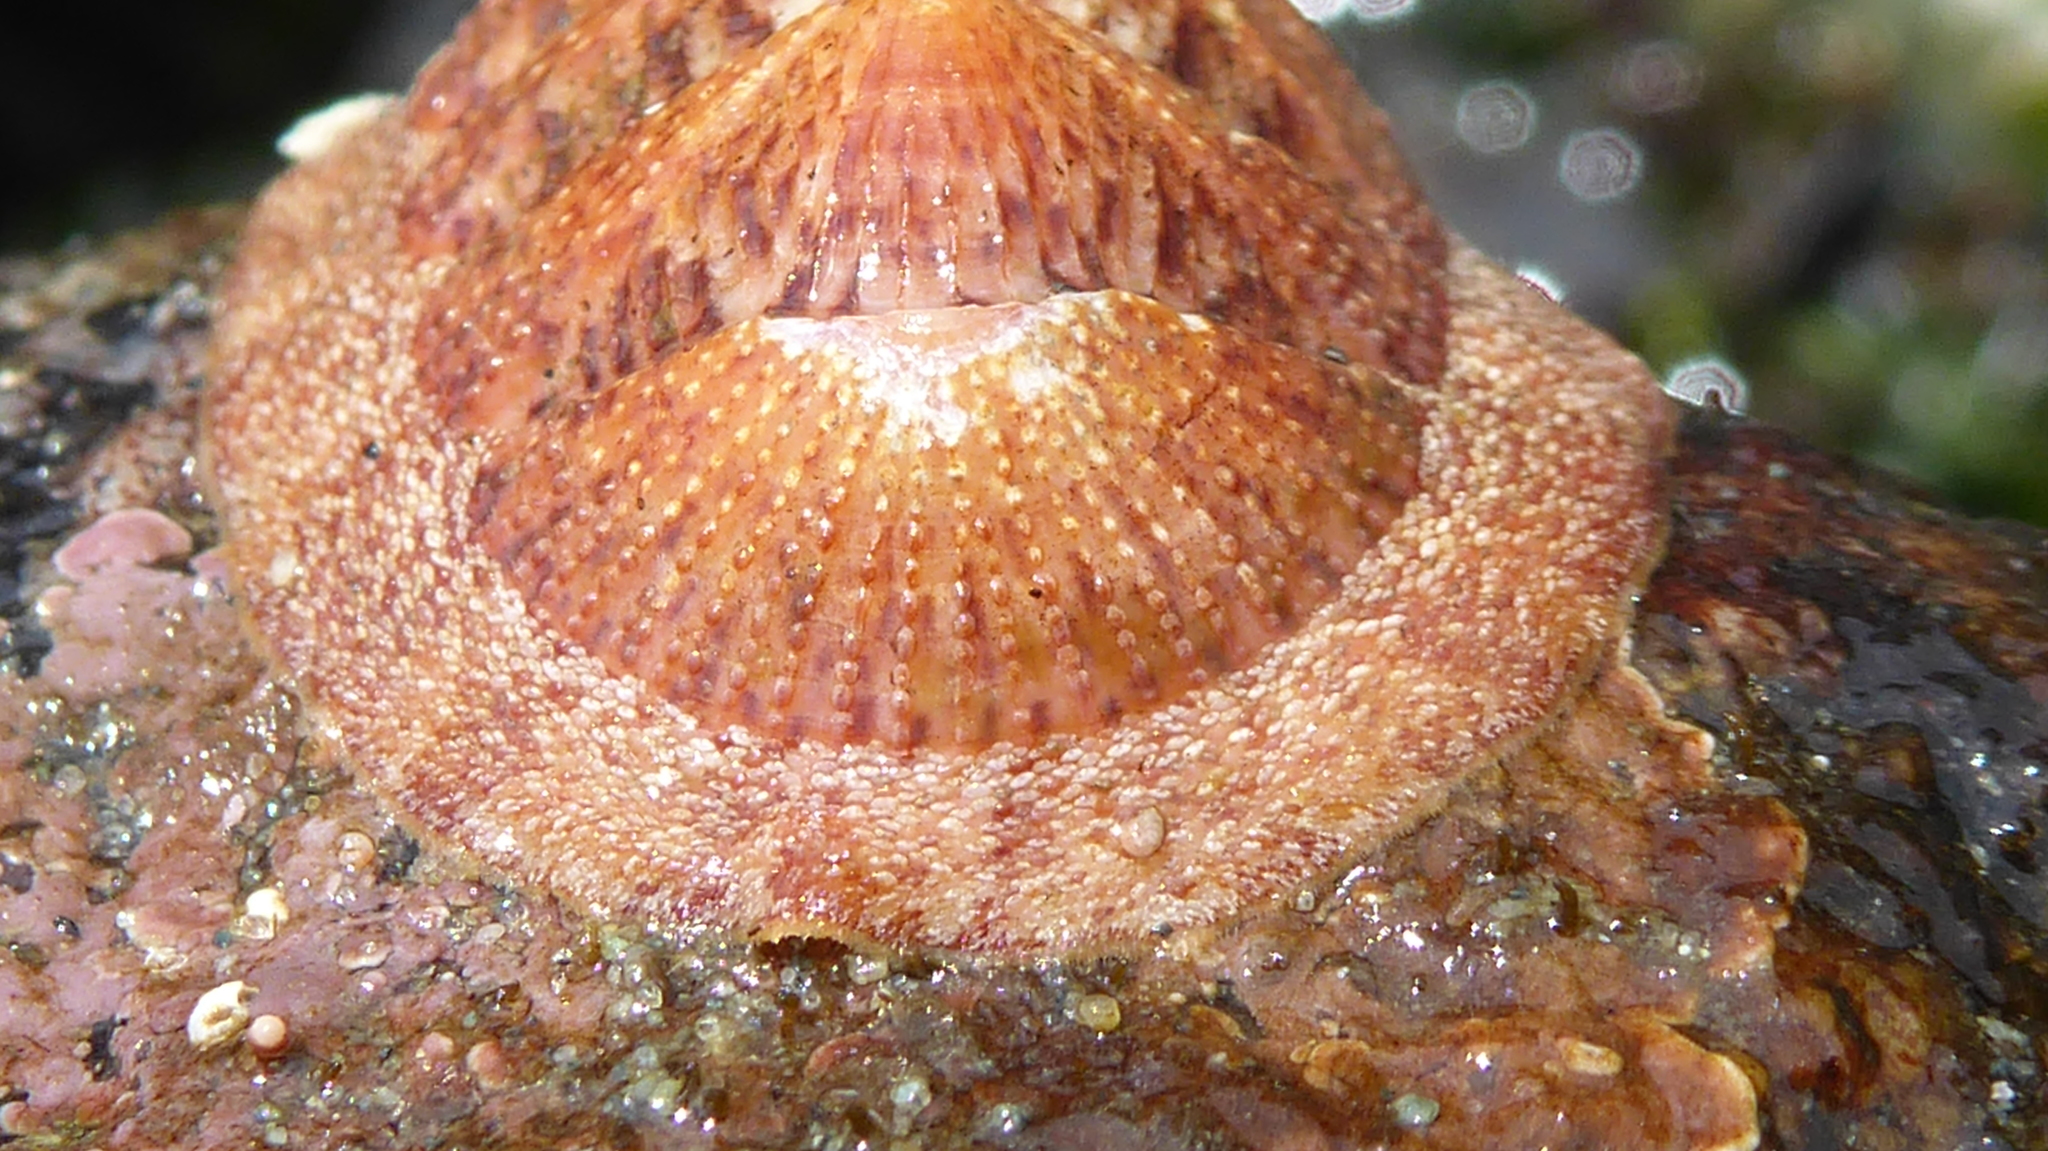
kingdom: Animalia
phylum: Mollusca
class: Polyplacophora
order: Chitonida
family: Ischnochitonidae
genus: Lepidozona
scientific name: Lepidozona mertensii
